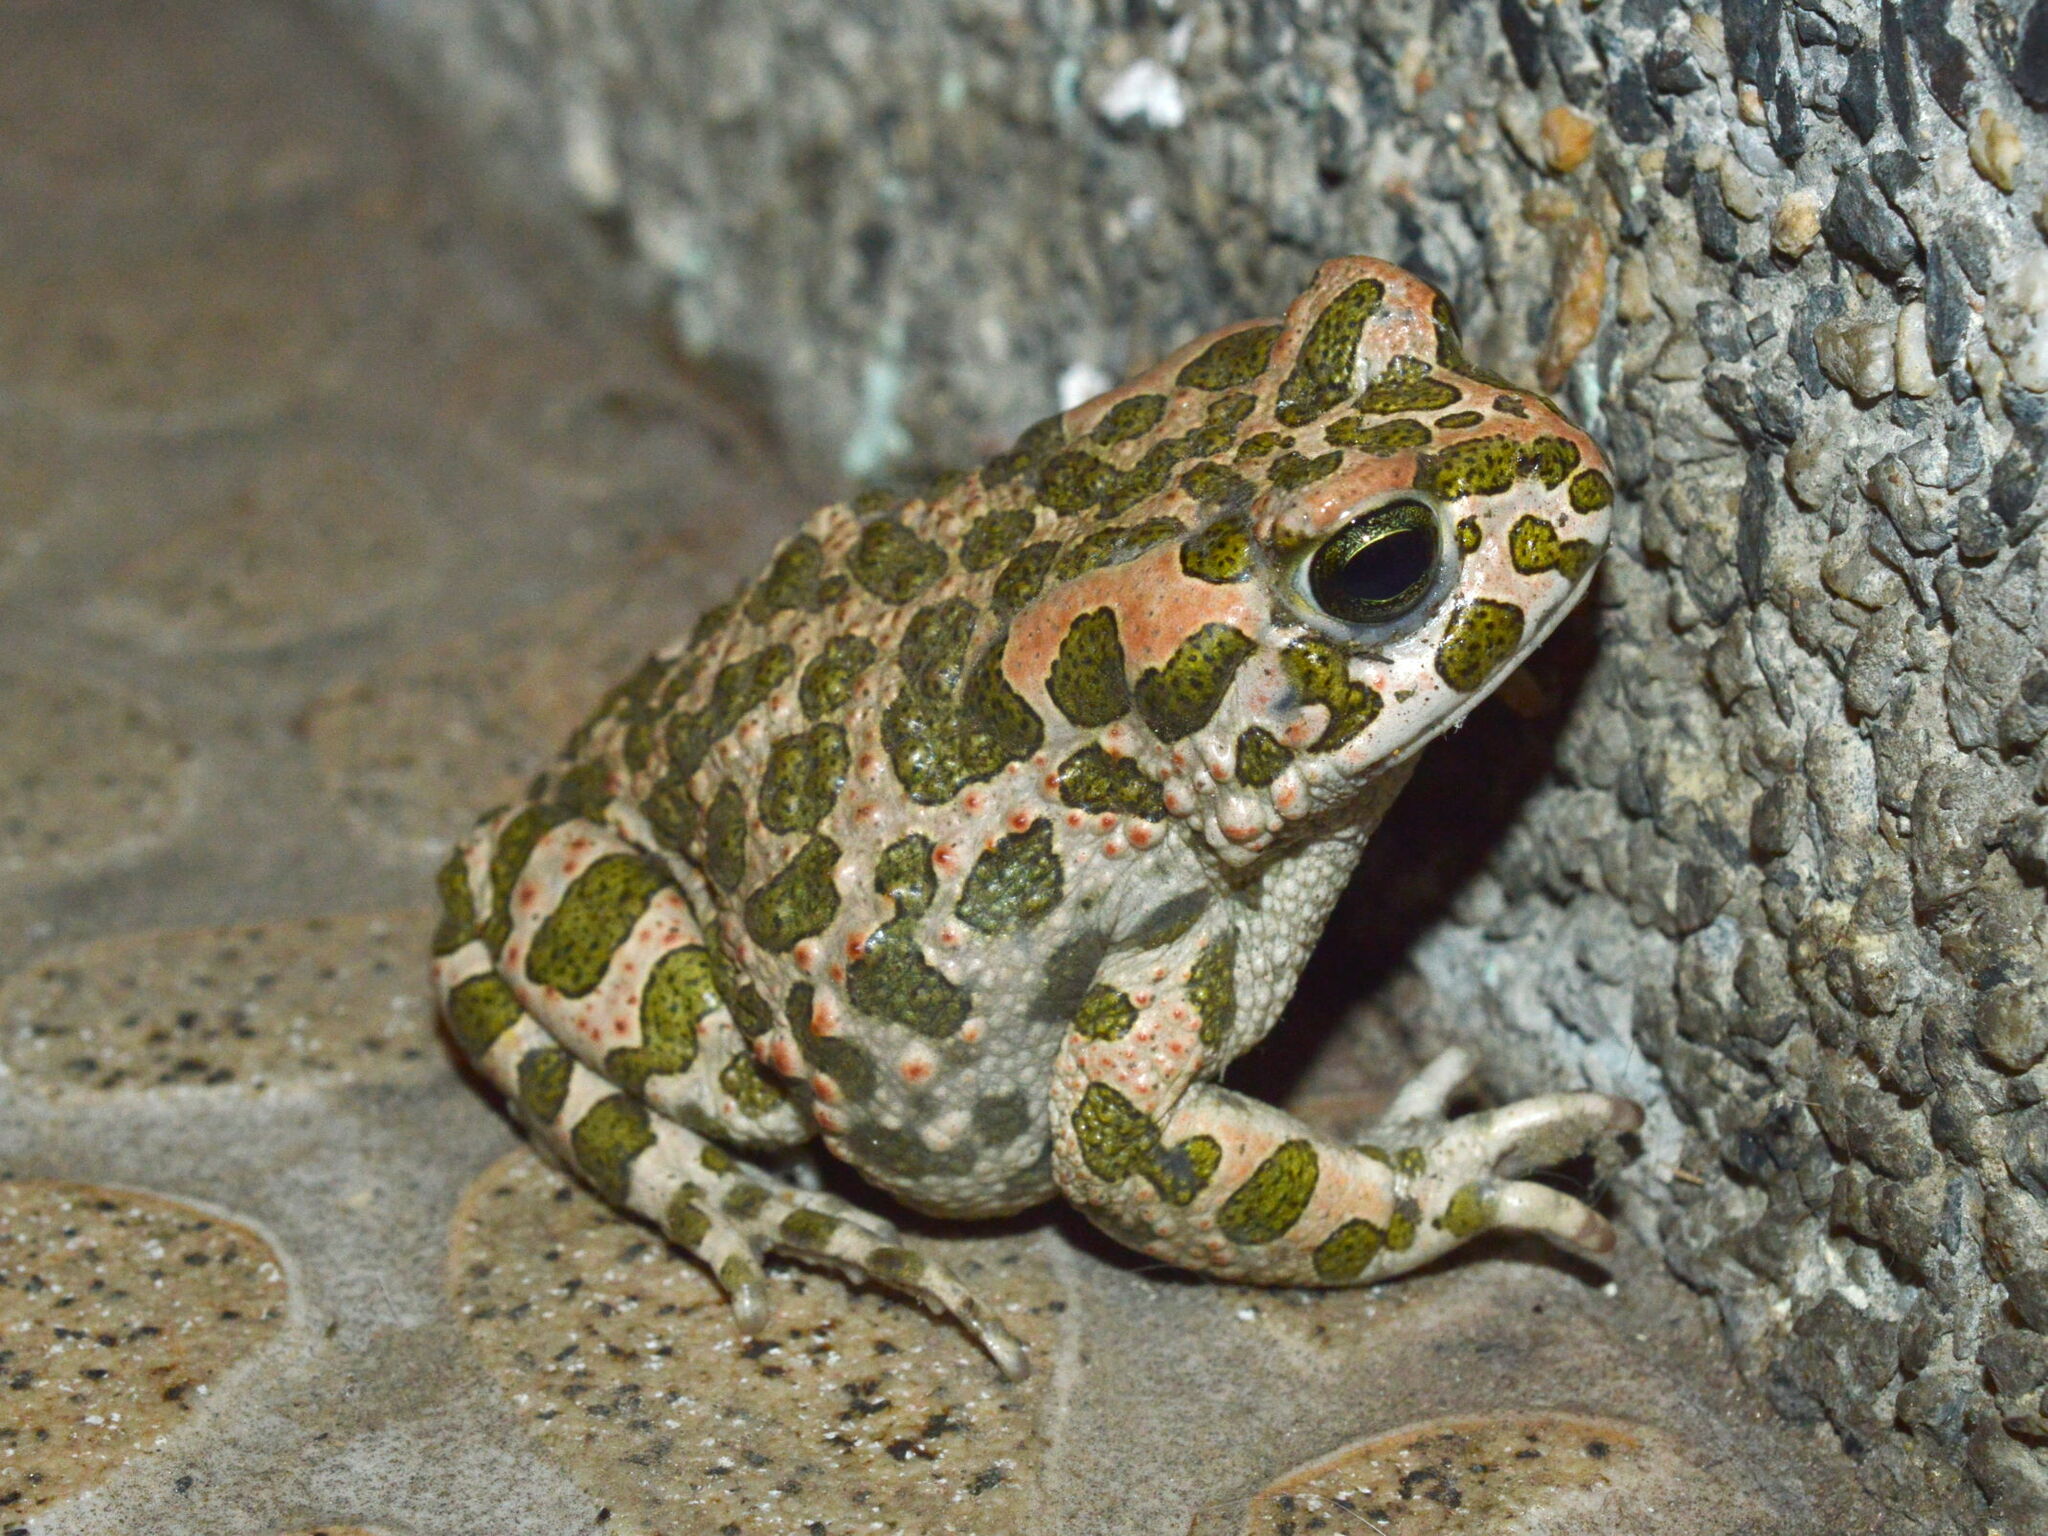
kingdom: Animalia
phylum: Chordata
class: Amphibia
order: Anura
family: Bufonidae
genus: Bufotes
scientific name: Bufotes viridis
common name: European green toad
